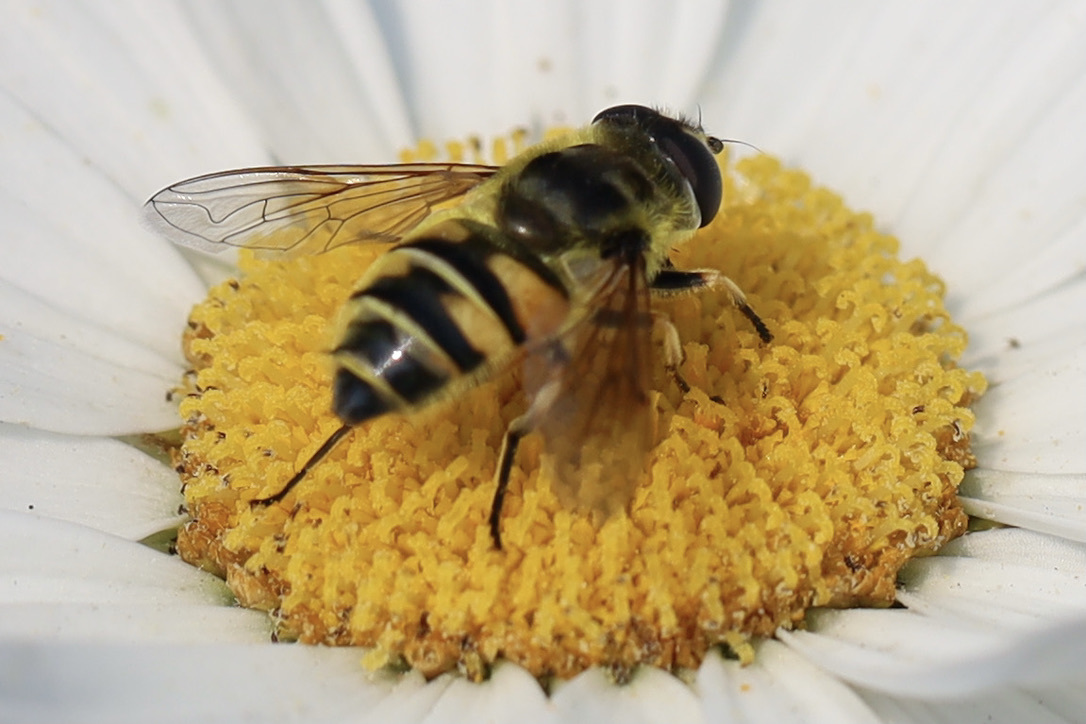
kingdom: Animalia
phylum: Arthropoda
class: Insecta
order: Diptera
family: Syrphidae
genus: Myathropa
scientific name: Myathropa florea
